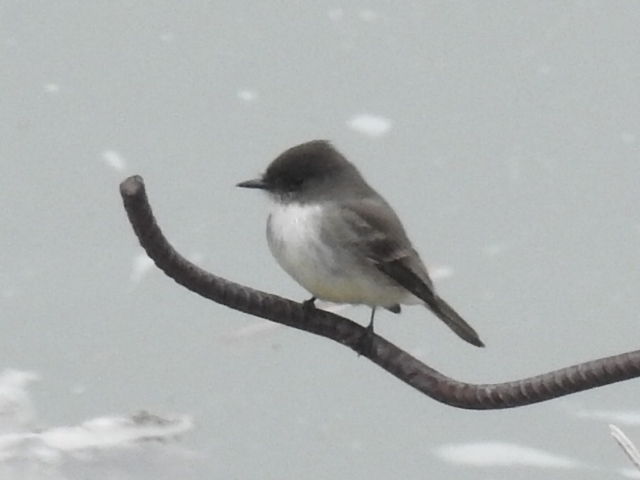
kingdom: Animalia
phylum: Chordata
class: Aves
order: Passeriformes
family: Tyrannidae
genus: Sayornis
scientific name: Sayornis phoebe
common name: Eastern phoebe
